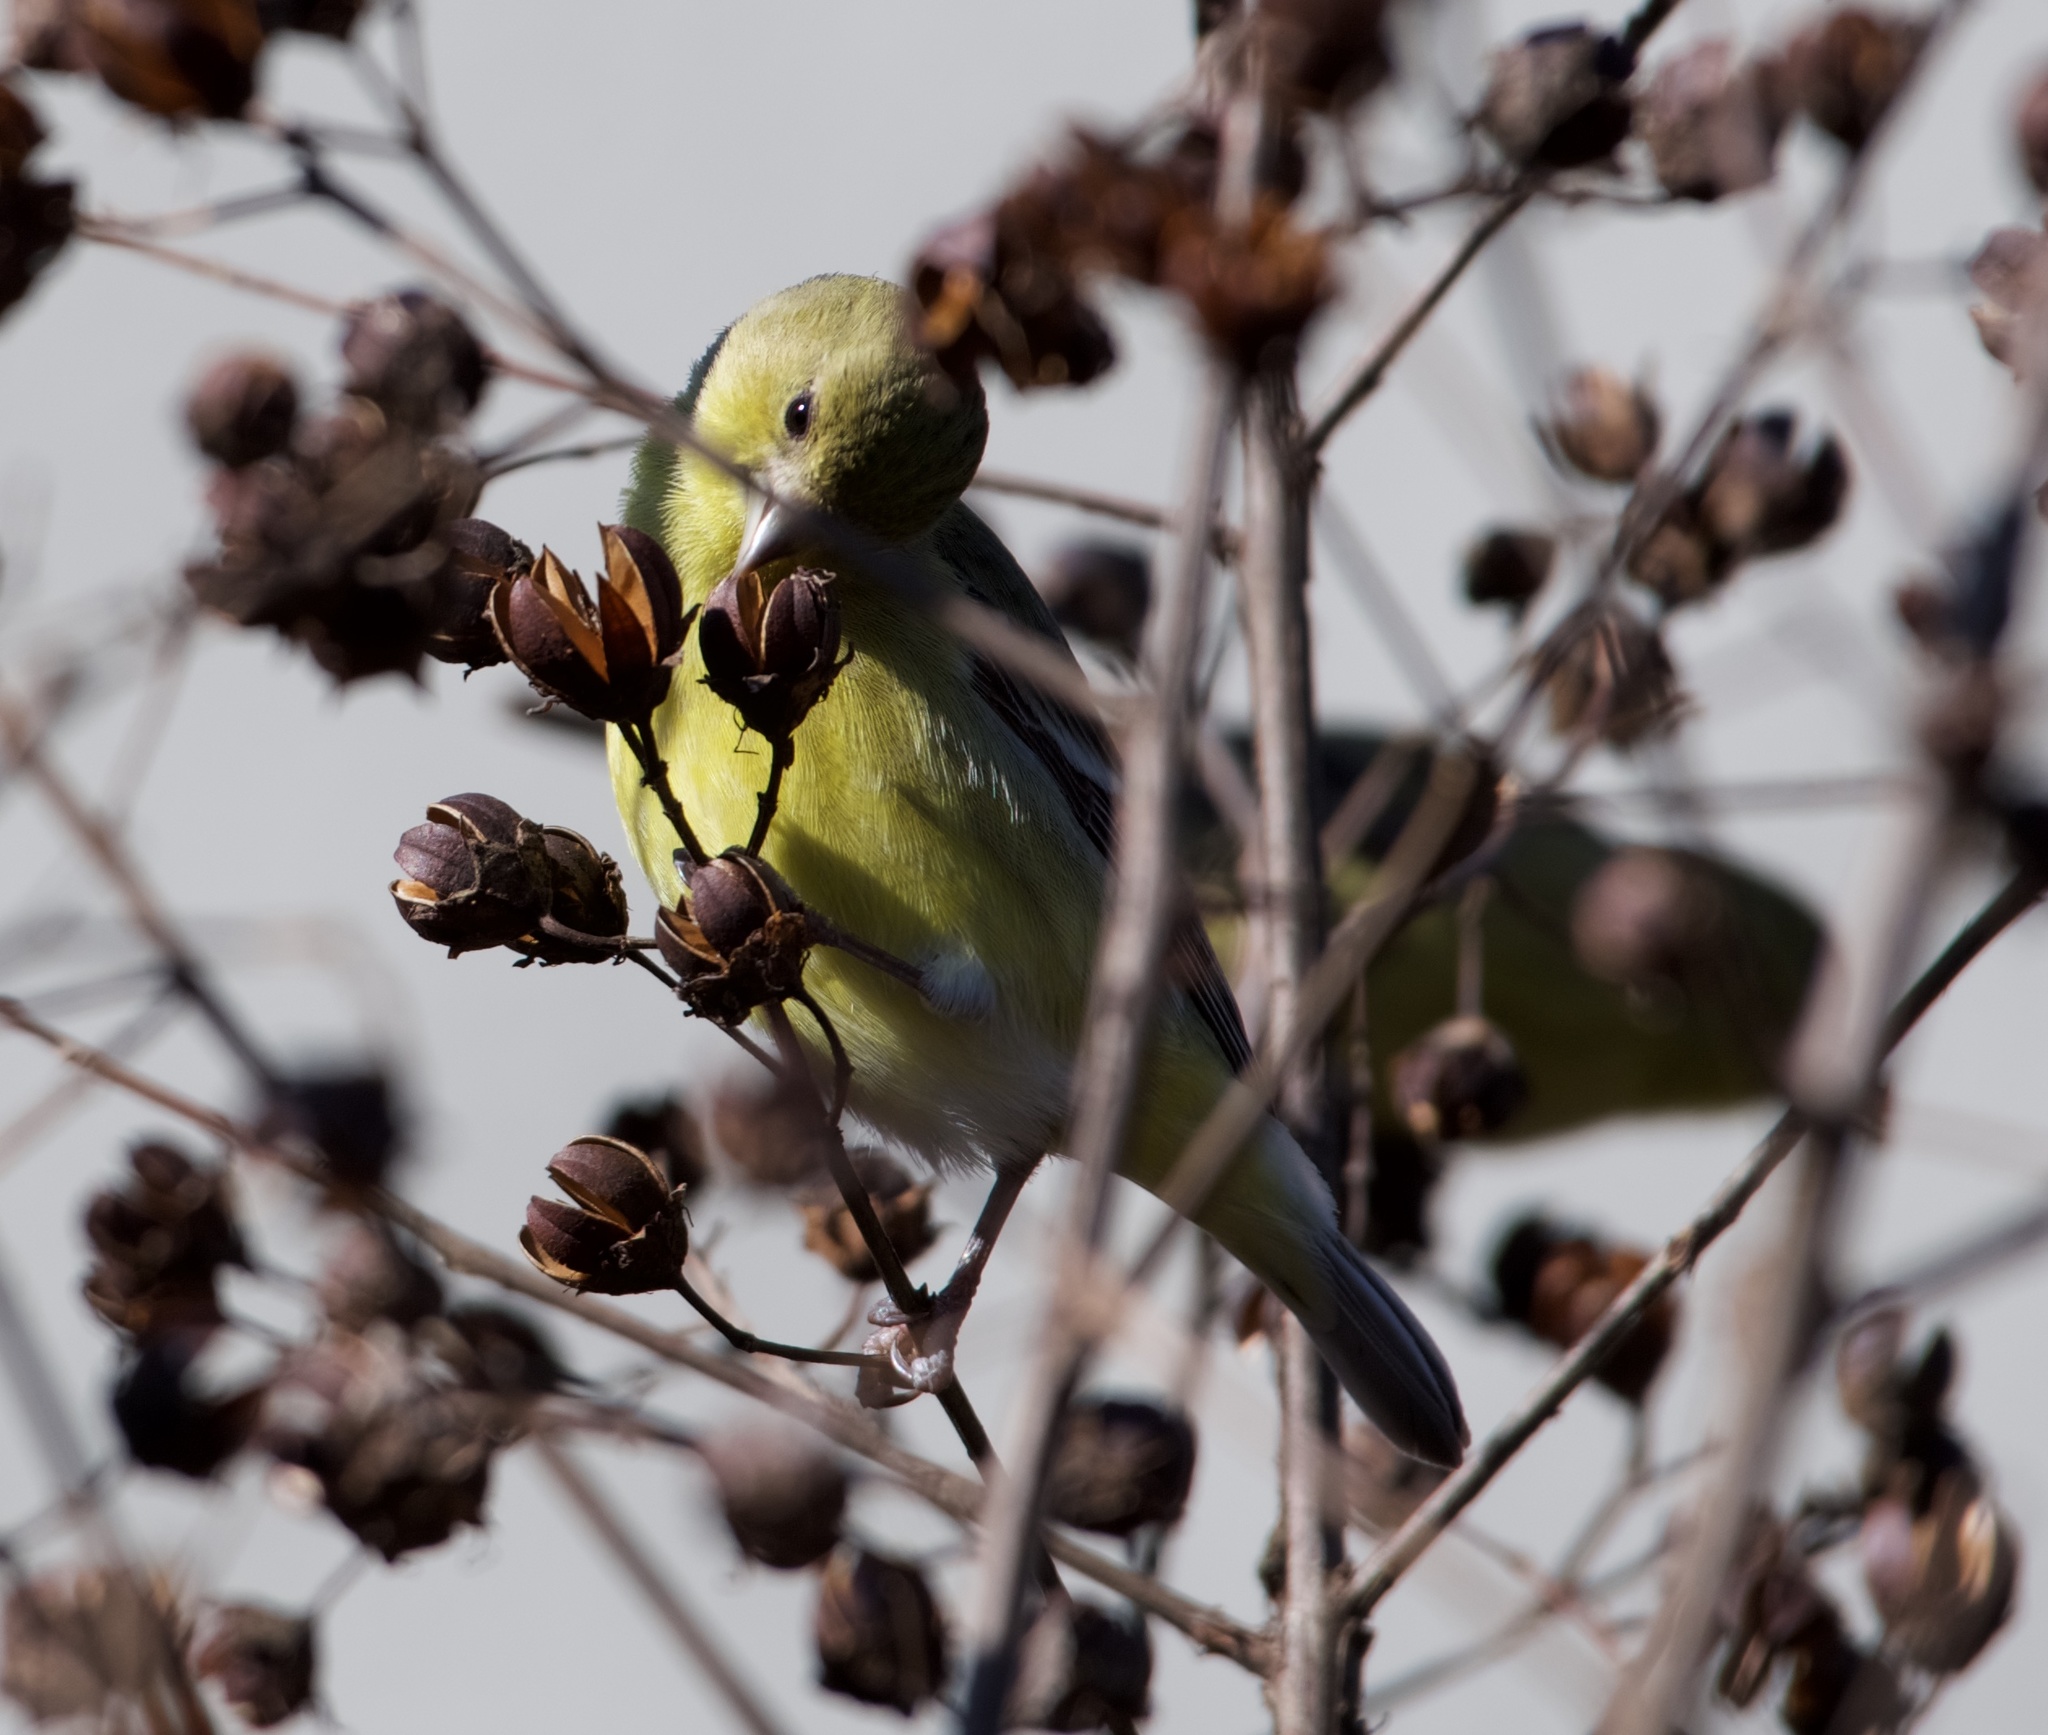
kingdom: Animalia
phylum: Chordata
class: Aves
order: Passeriformes
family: Fringillidae
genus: Spinus
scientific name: Spinus psaltria
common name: Lesser goldfinch
